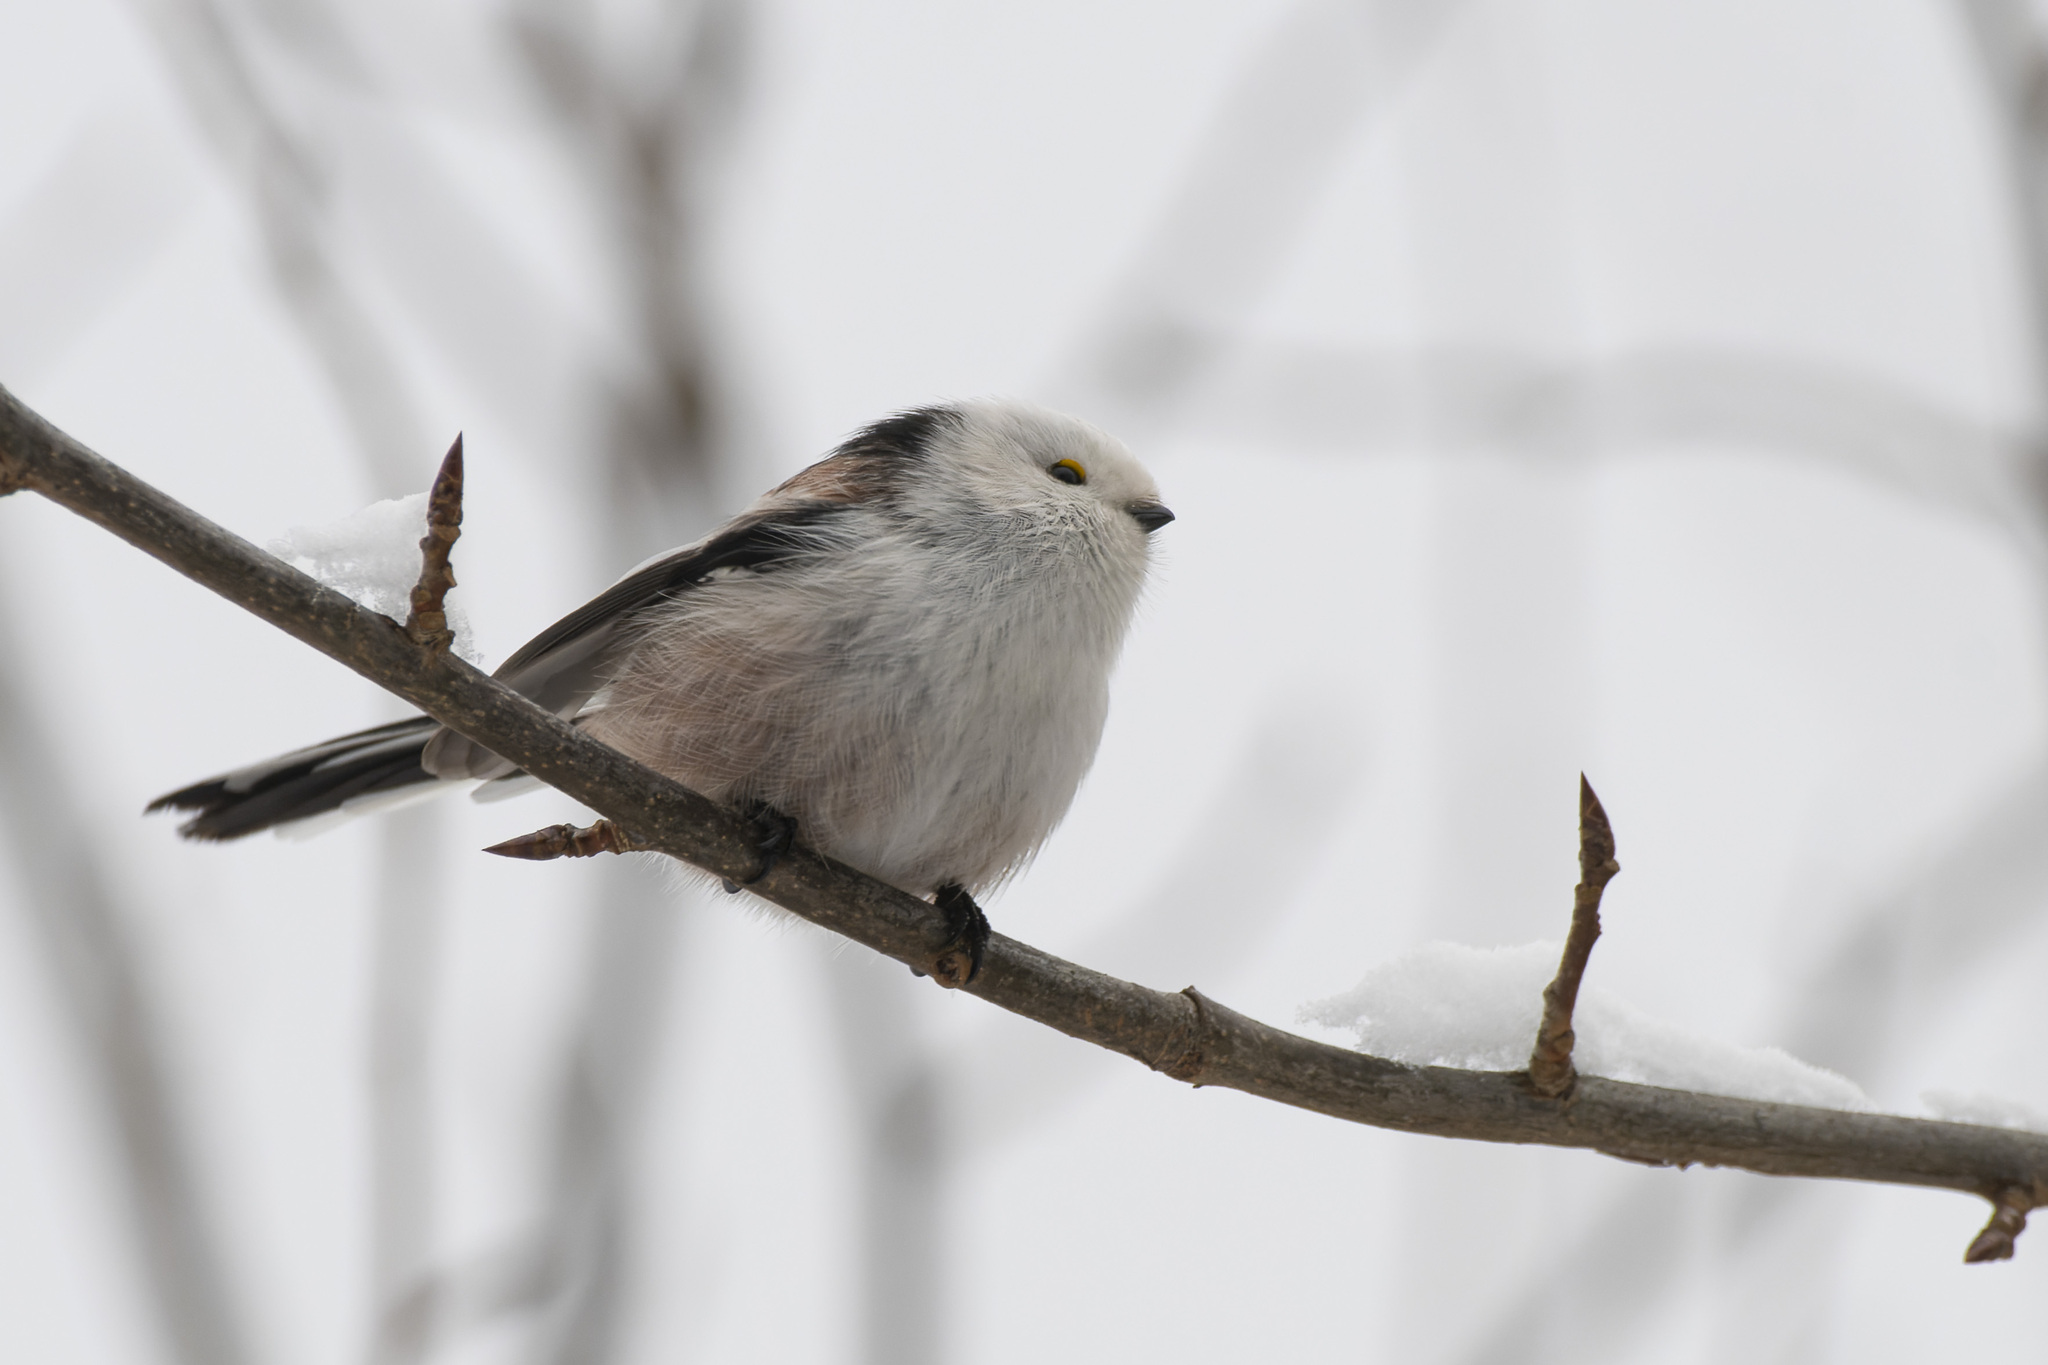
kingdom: Animalia
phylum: Chordata
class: Aves
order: Passeriformes
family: Aegithalidae
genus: Aegithalos
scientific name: Aegithalos caudatus
